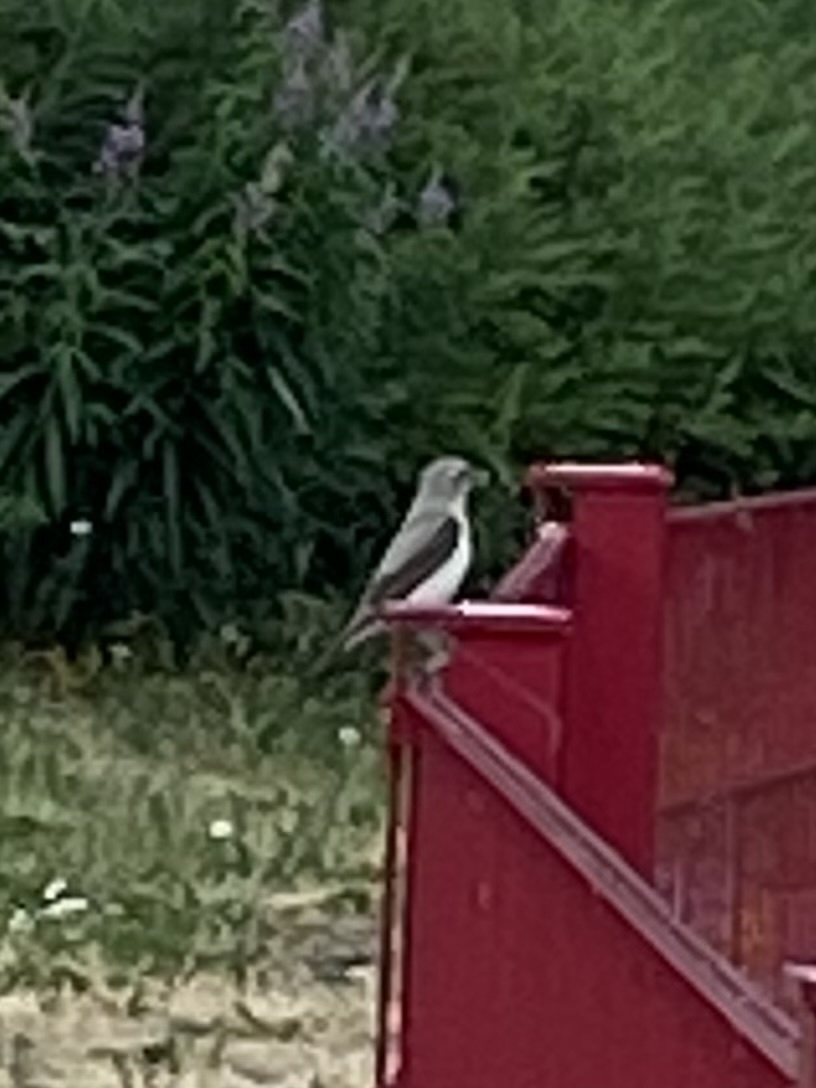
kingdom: Animalia
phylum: Chordata
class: Aves
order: Passeriformes
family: Muscicapidae
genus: Oenanthe
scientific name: Oenanthe oenanthe
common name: Northern wheatear
